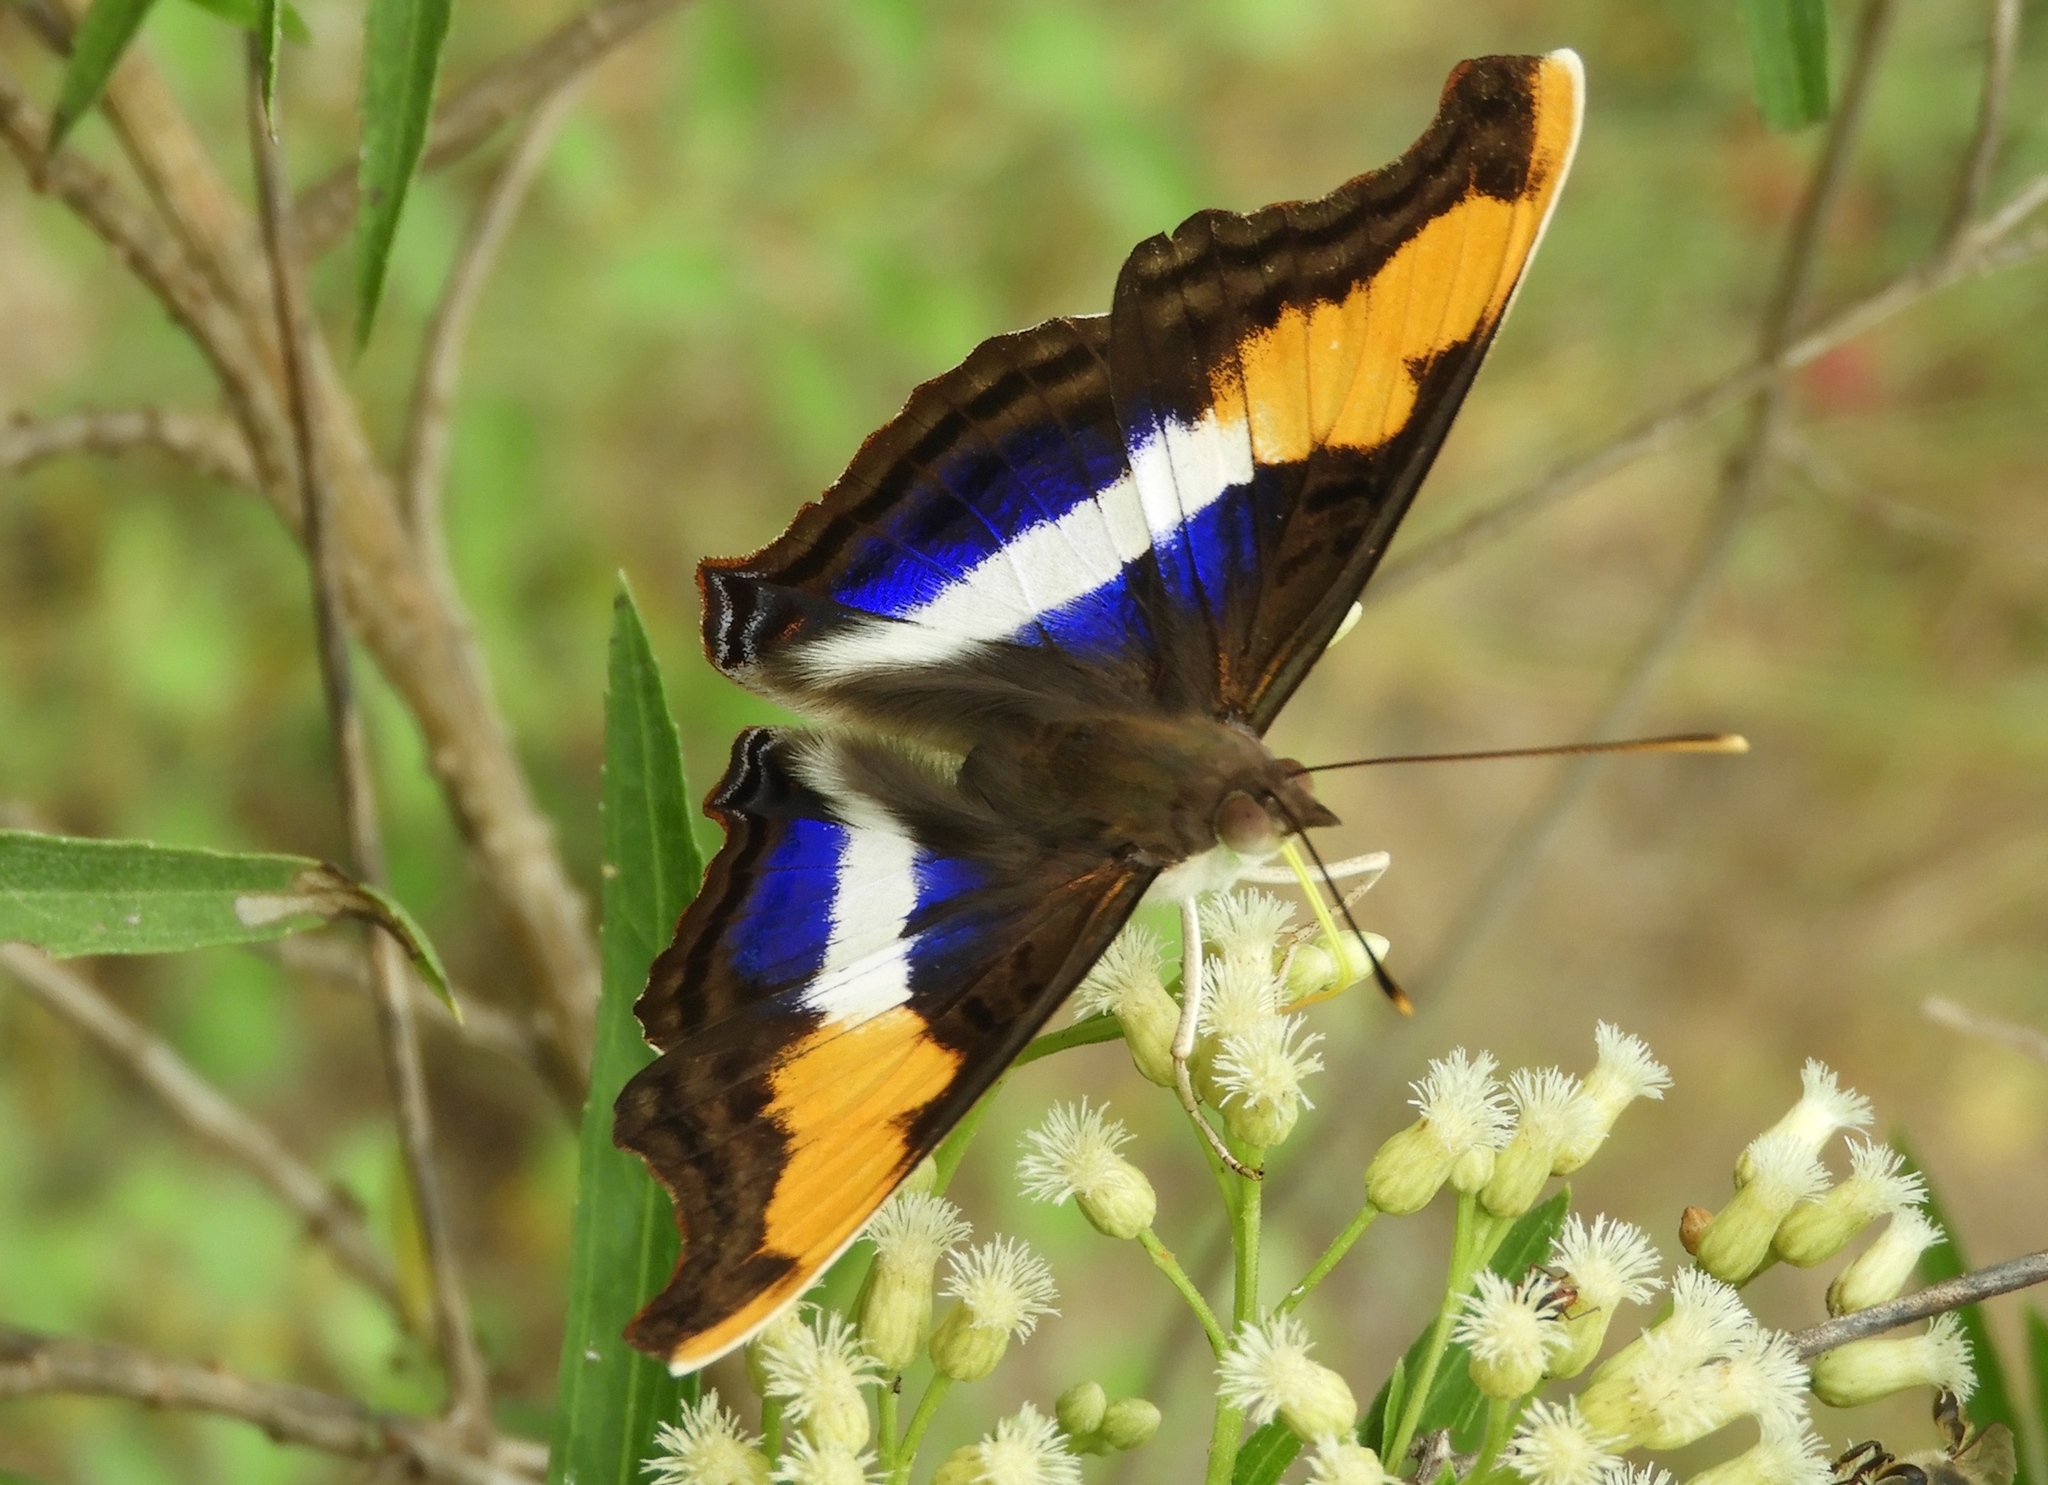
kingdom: Animalia
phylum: Arthropoda
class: Insecta
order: Lepidoptera
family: Nymphalidae
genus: Doxocopa
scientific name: Doxocopa laure
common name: Silver emperor
